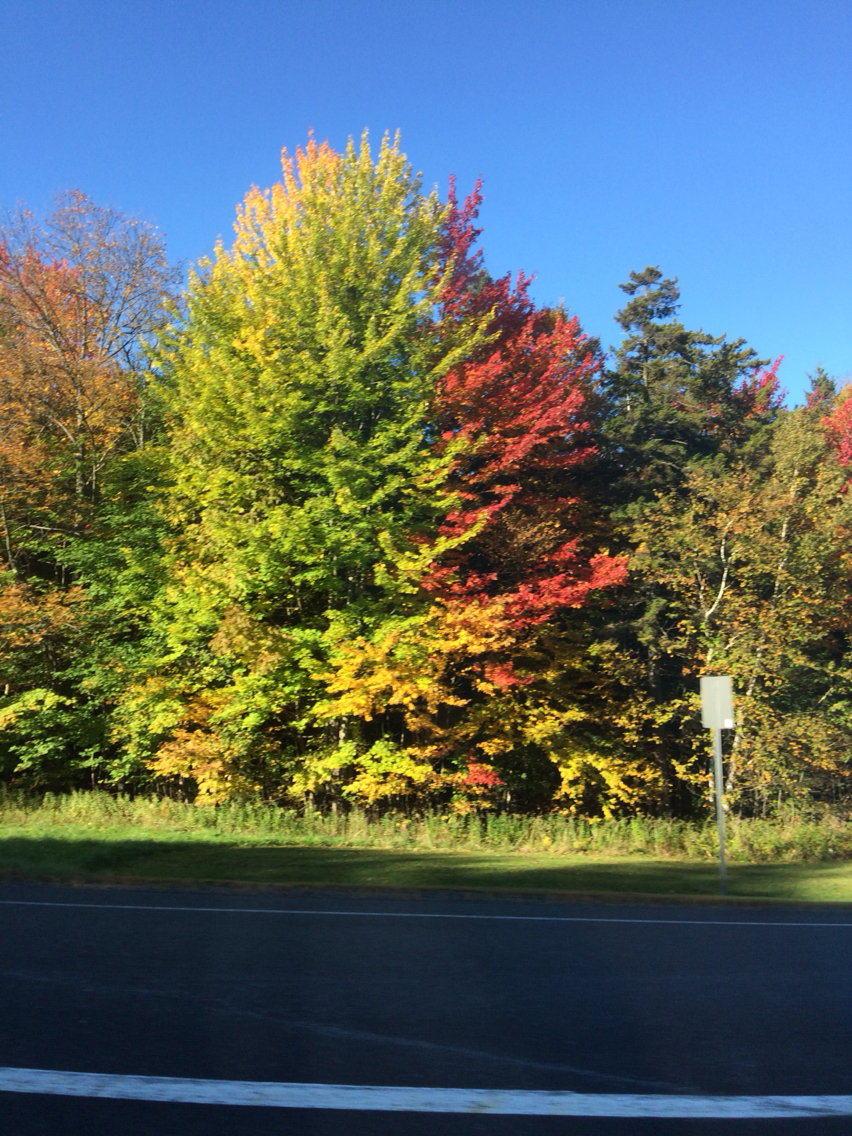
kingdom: Plantae
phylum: Tracheophyta
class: Magnoliopsida
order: Sapindales
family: Sapindaceae
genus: Acer
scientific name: Acer rubrum
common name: Red maple
